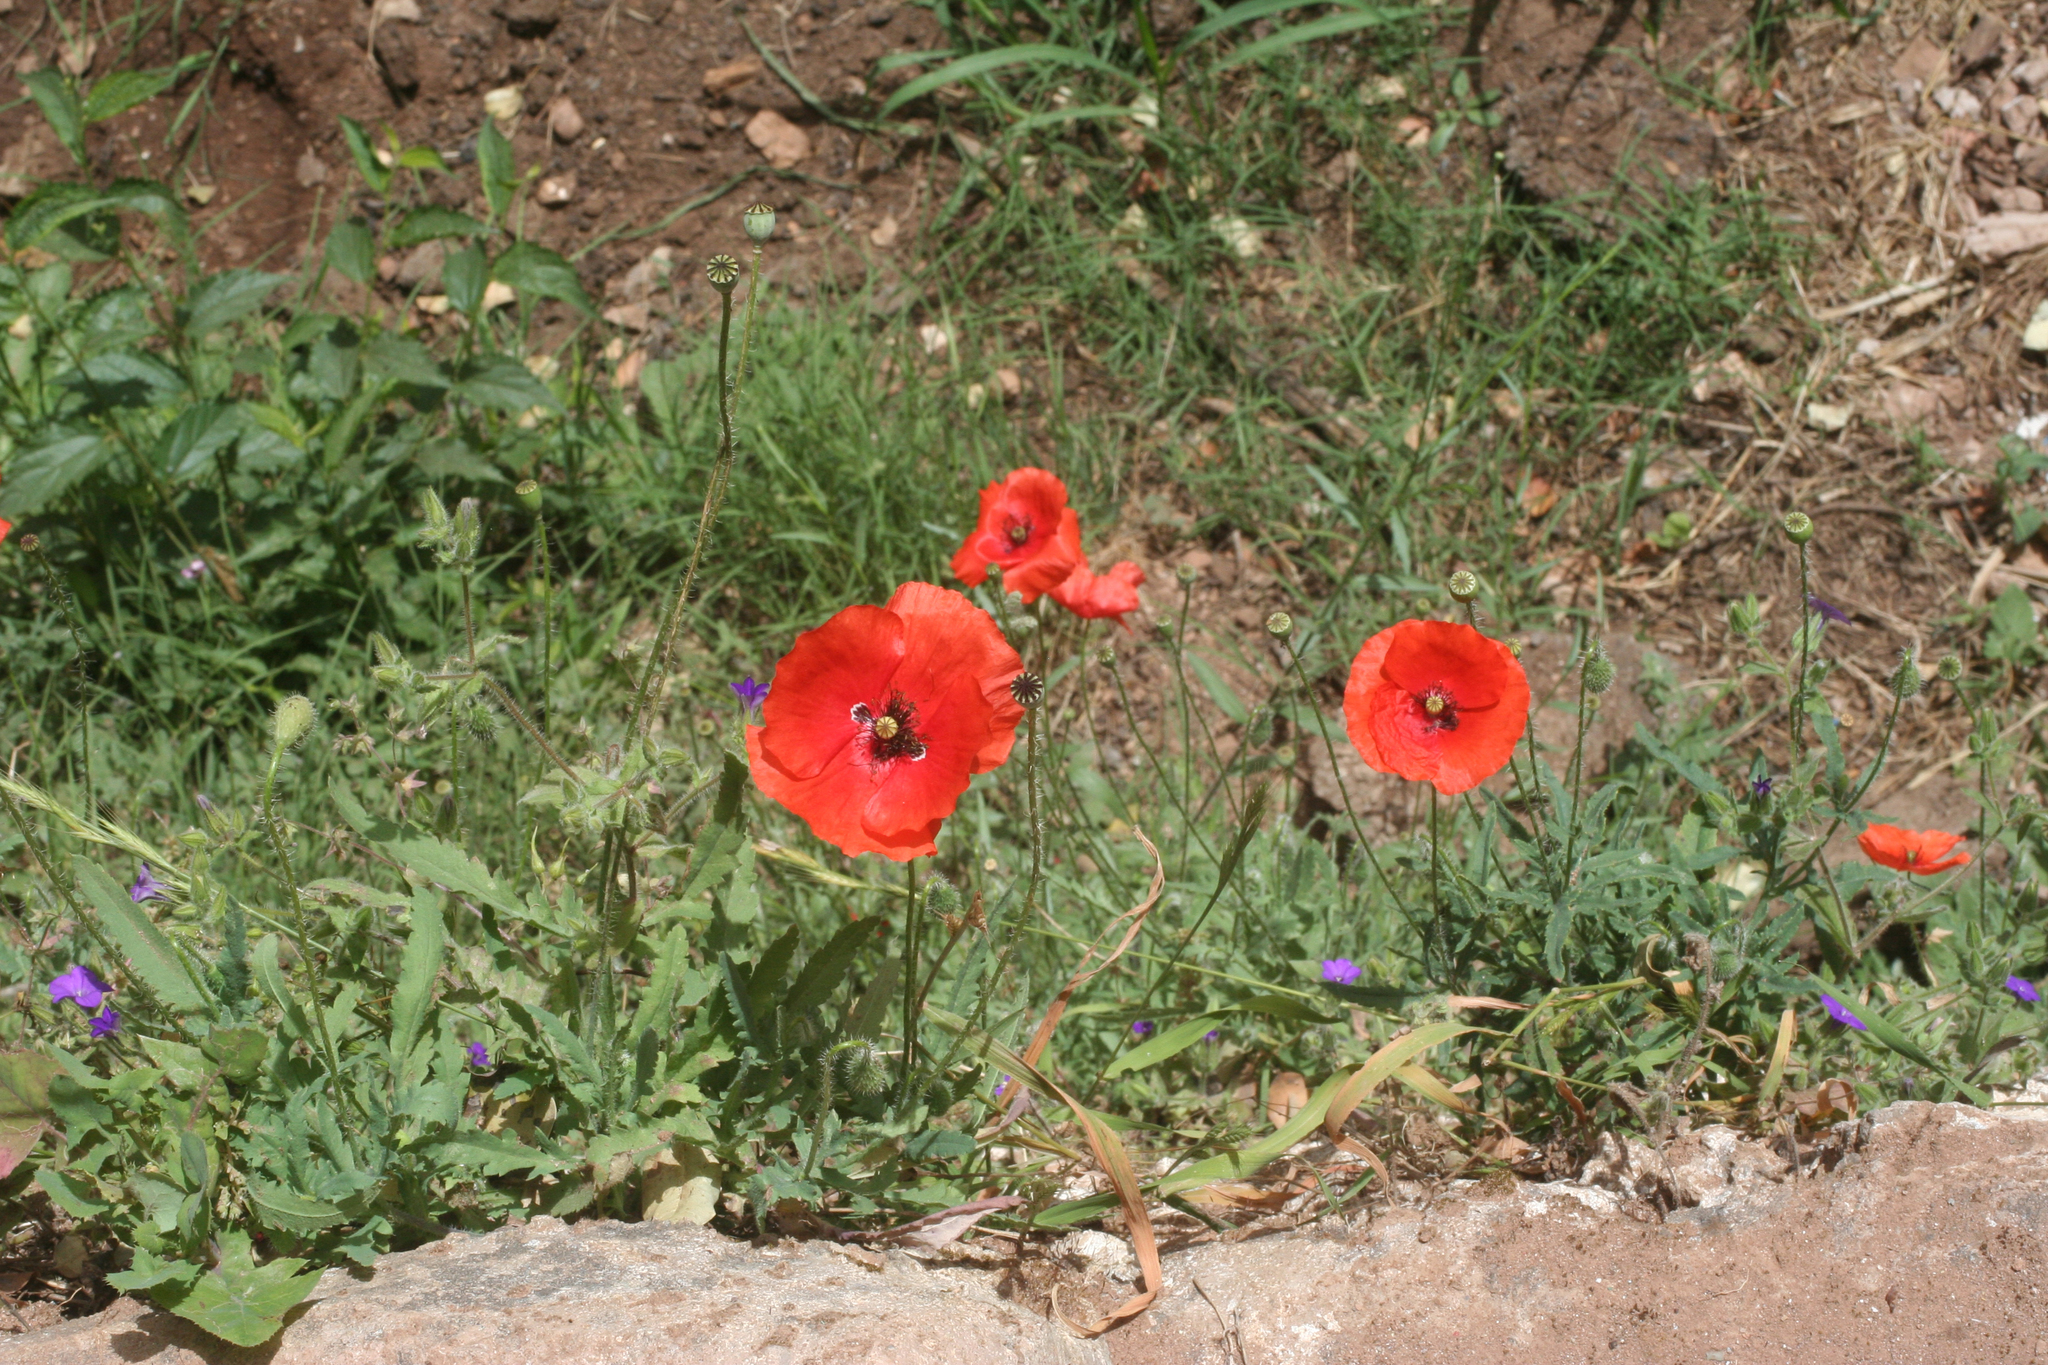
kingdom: Plantae
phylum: Tracheophyta
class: Magnoliopsida
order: Ranunculales
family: Papaveraceae
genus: Papaver
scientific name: Papaver rhoeas
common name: Corn poppy
